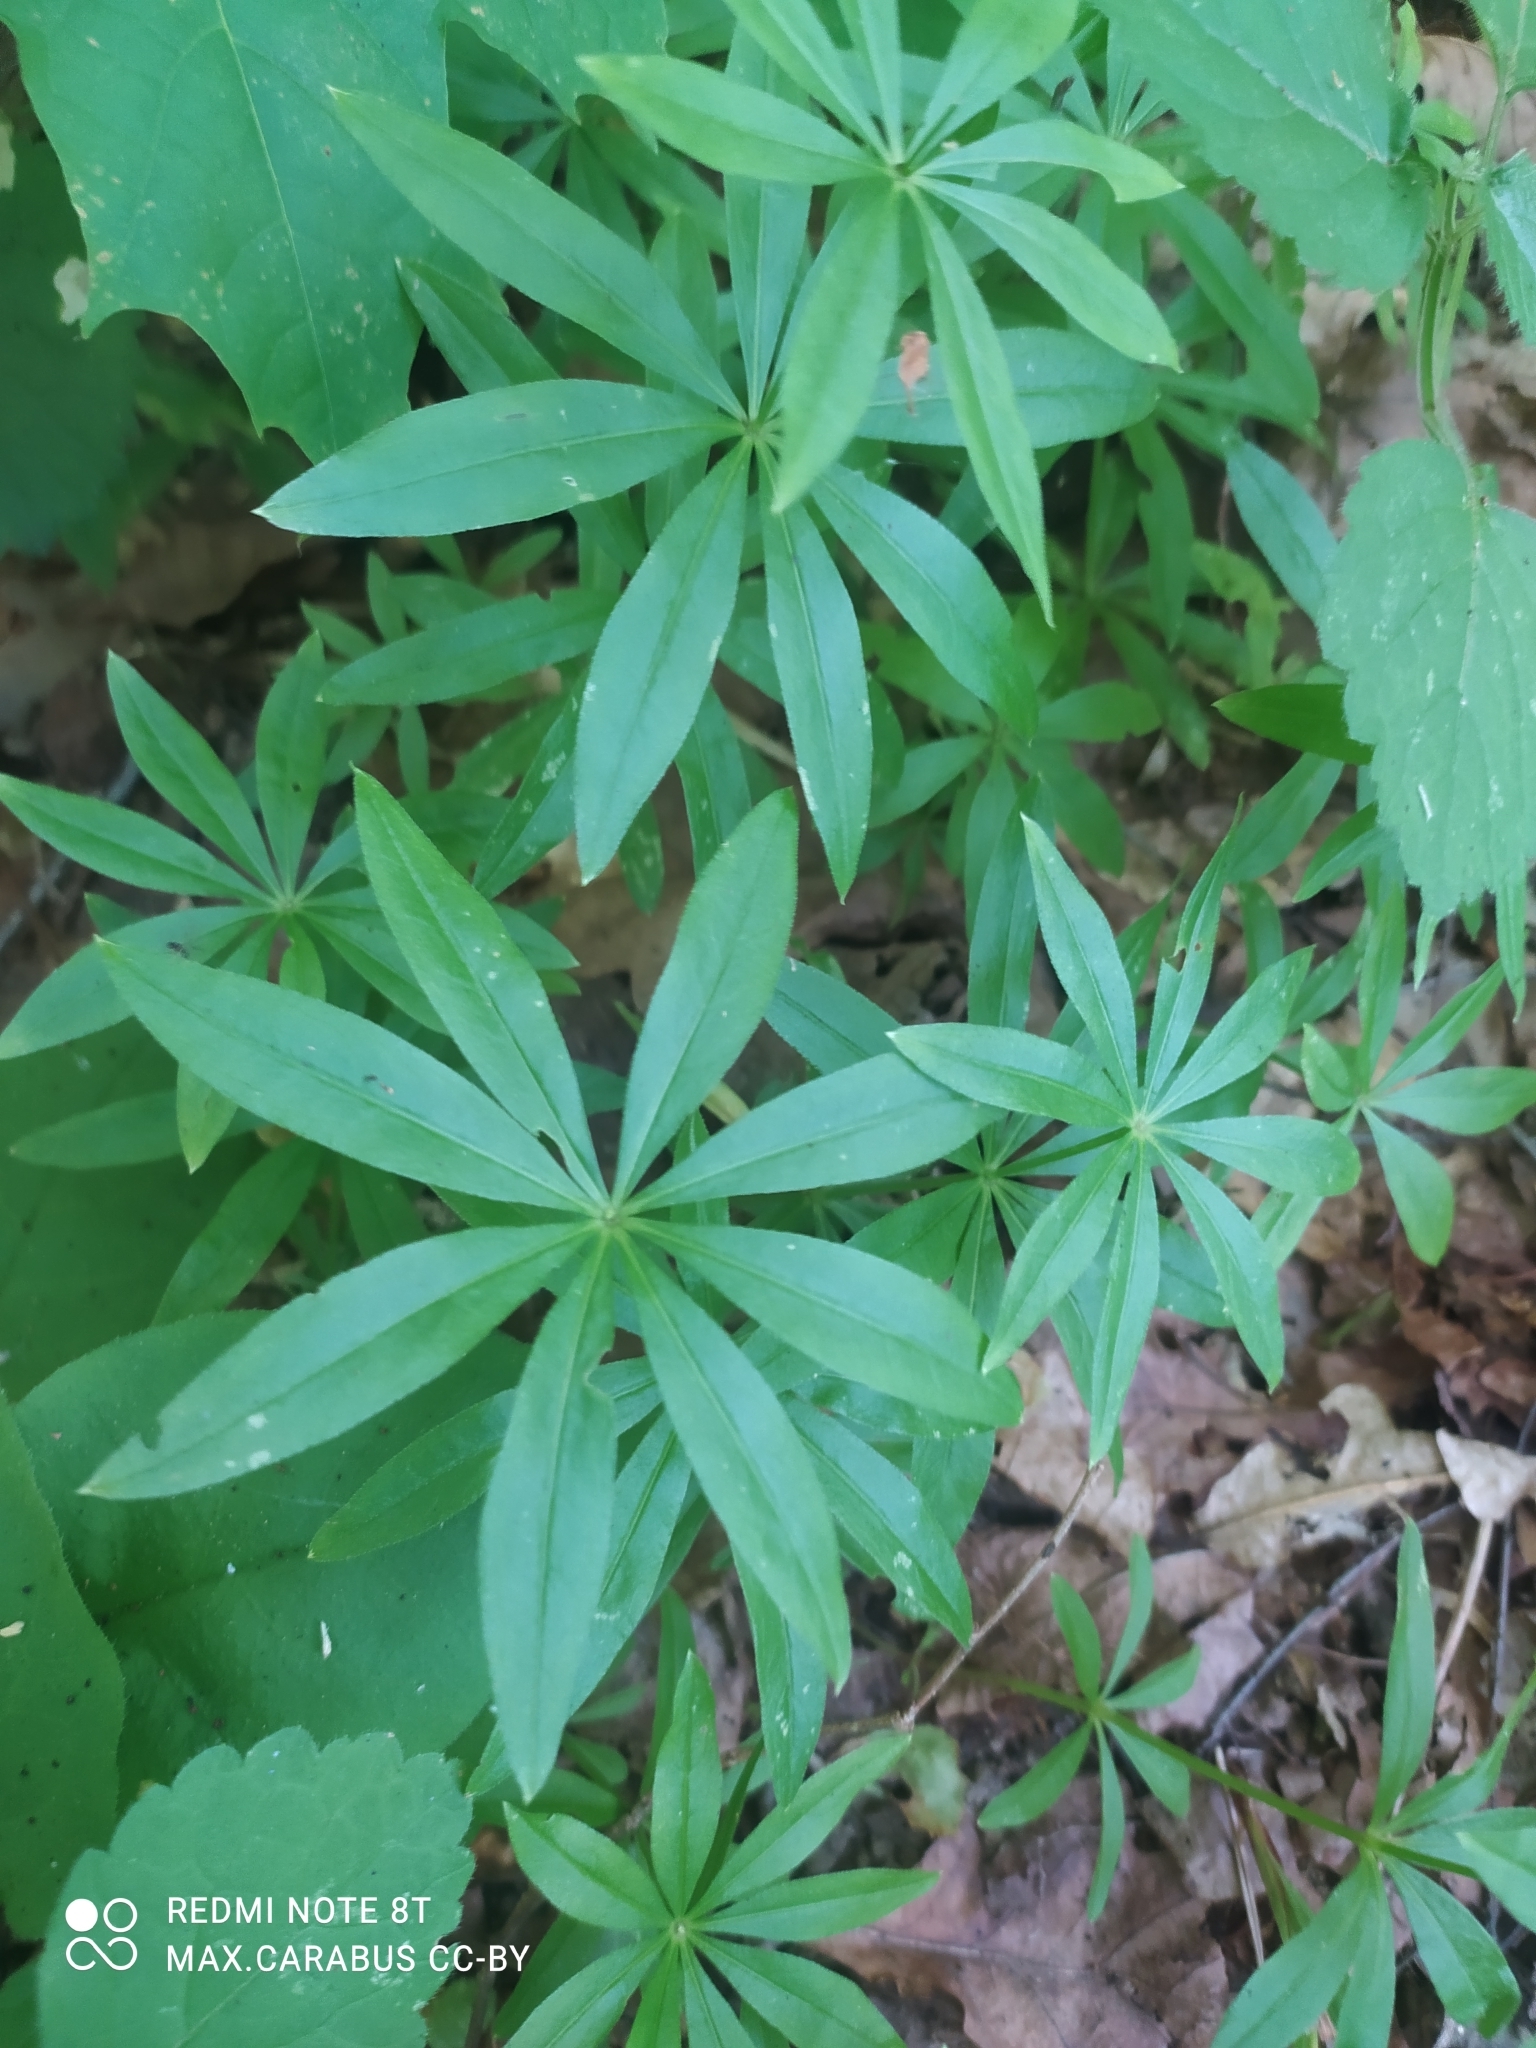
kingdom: Plantae
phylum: Tracheophyta
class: Magnoliopsida
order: Gentianales
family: Rubiaceae
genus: Galium
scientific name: Galium odoratum
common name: Sweet woodruff
